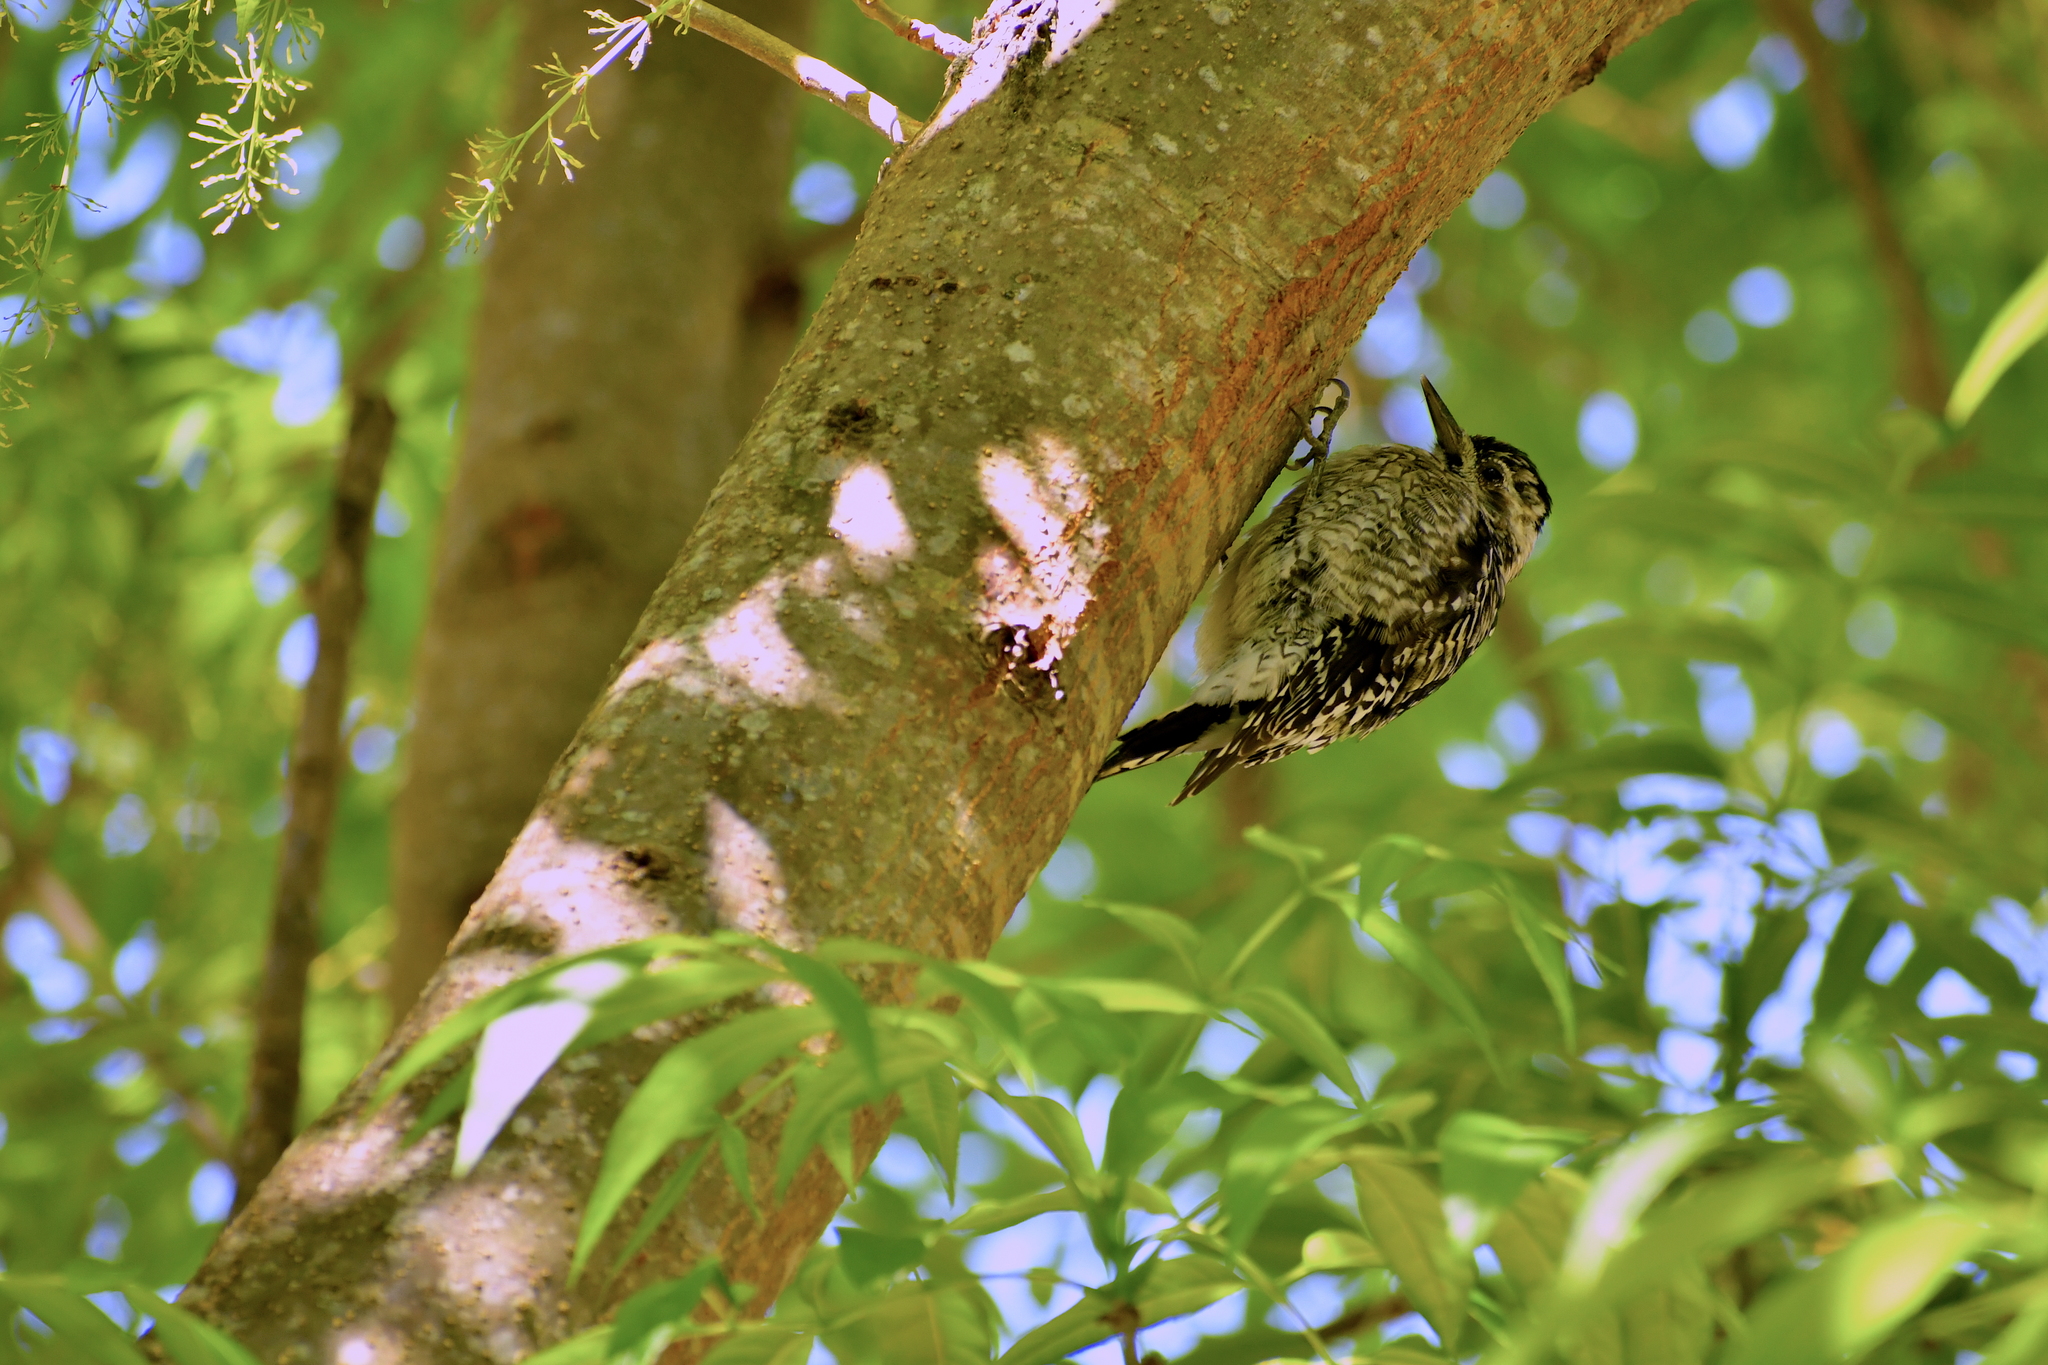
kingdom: Animalia
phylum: Chordata
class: Aves
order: Piciformes
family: Picidae
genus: Sphyrapicus
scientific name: Sphyrapicus varius
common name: Yellow-bellied sapsucker
